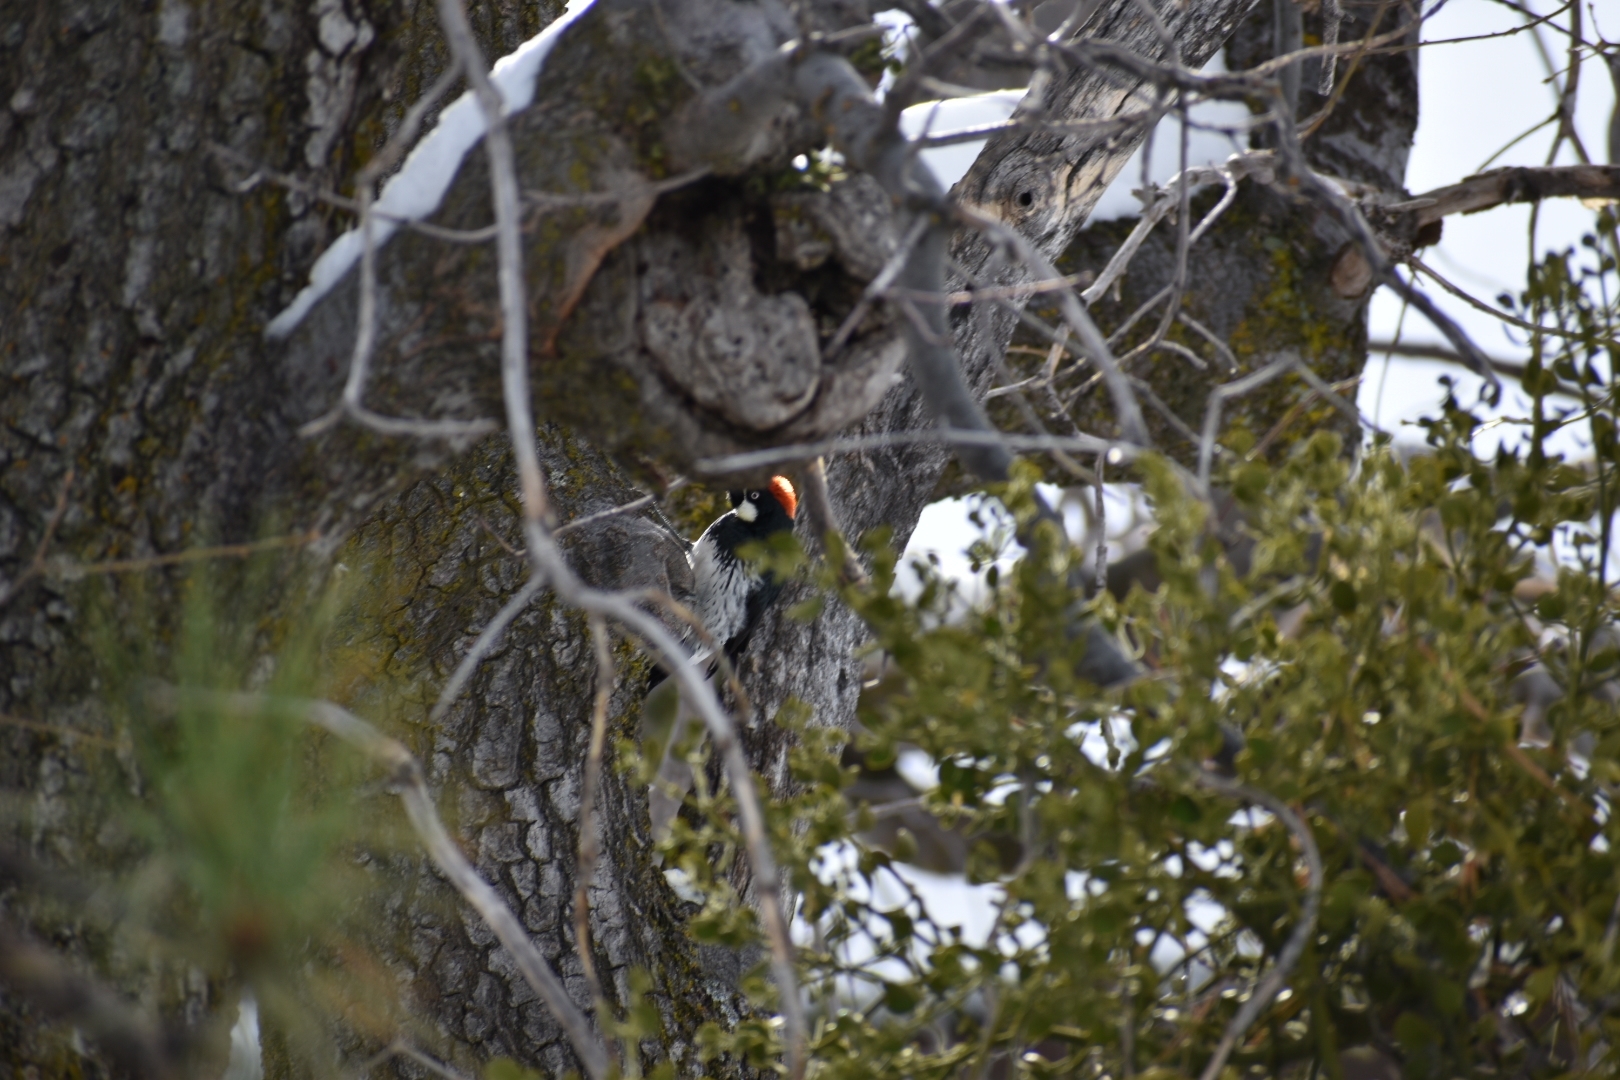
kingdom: Animalia
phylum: Chordata
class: Aves
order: Piciformes
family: Picidae
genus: Melanerpes
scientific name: Melanerpes formicivorus
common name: Acorn woodpecker
